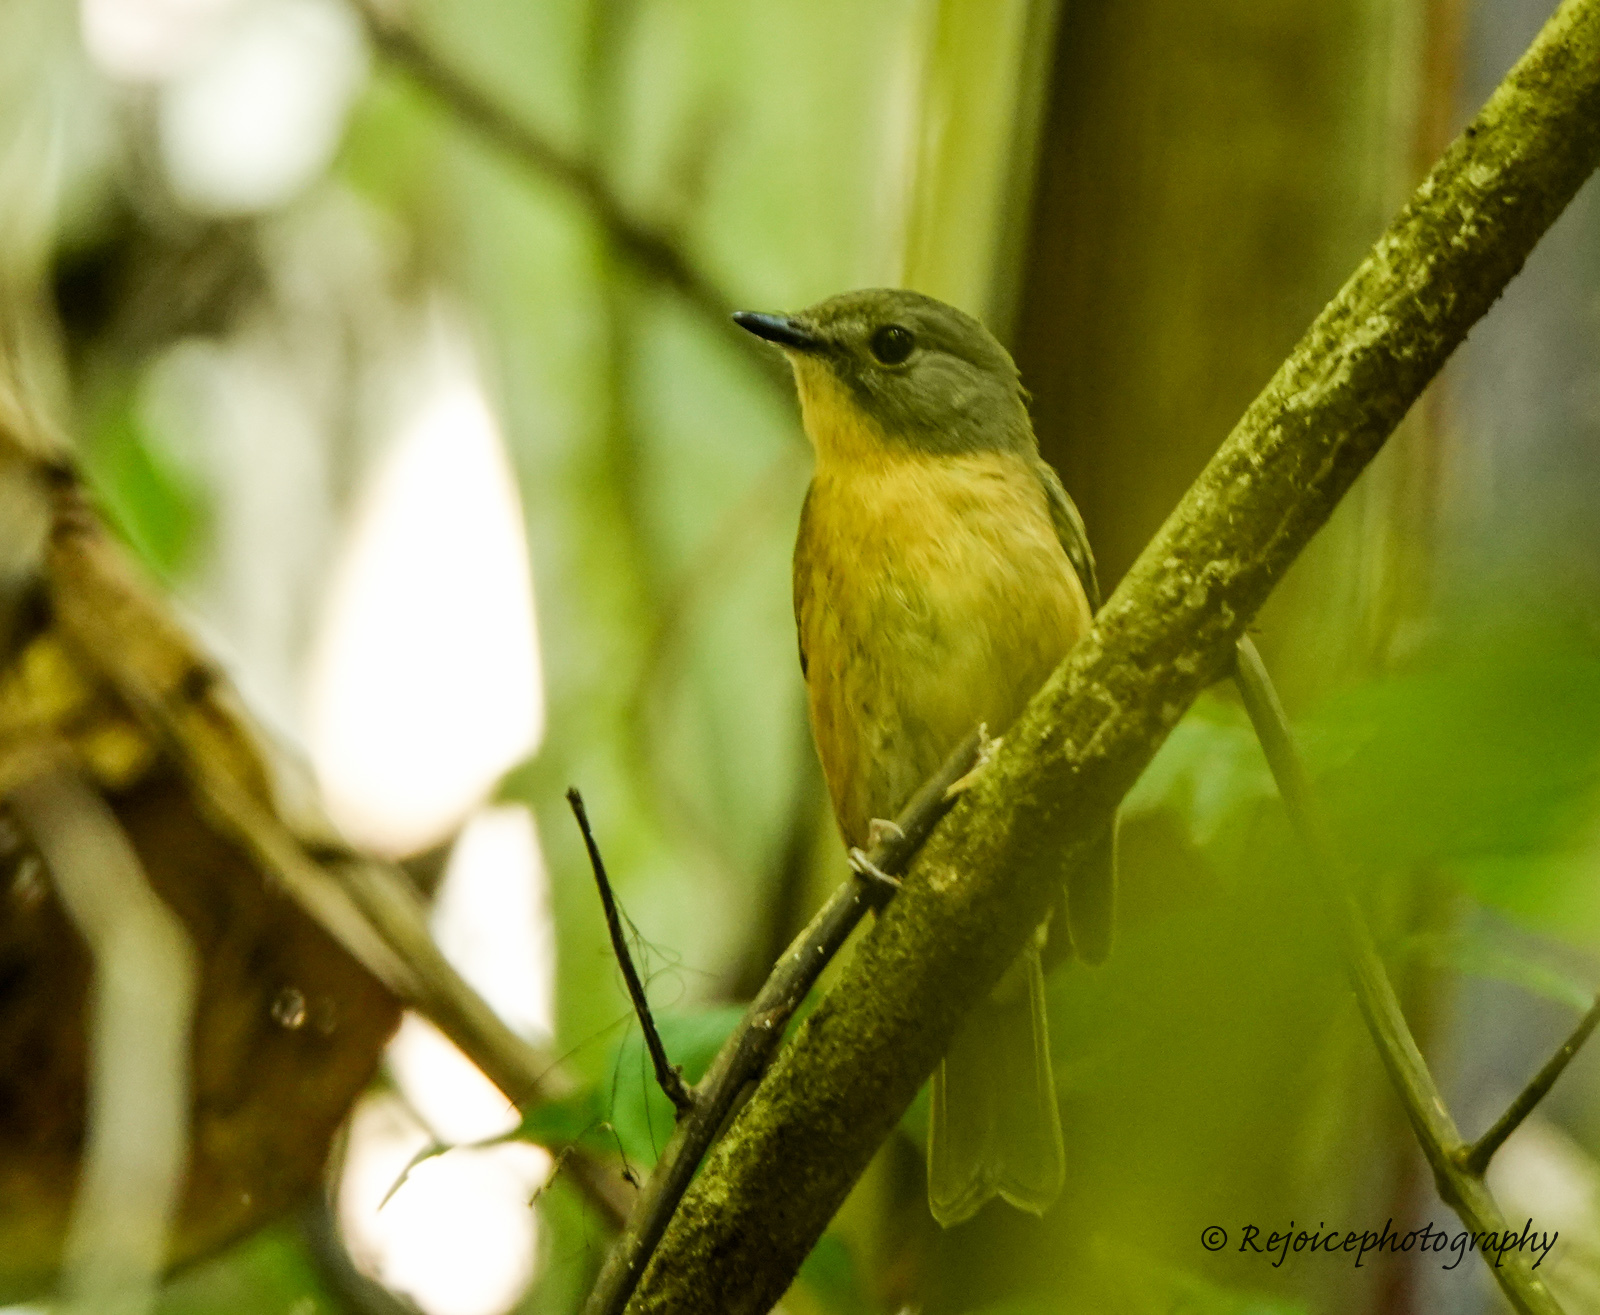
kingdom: Animalia
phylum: Chordata
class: Aves
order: Passeriformes
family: Muscicapidae
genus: Cyornis
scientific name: Cyornis poliogenys
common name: Pale-chinned blue flycatcher
